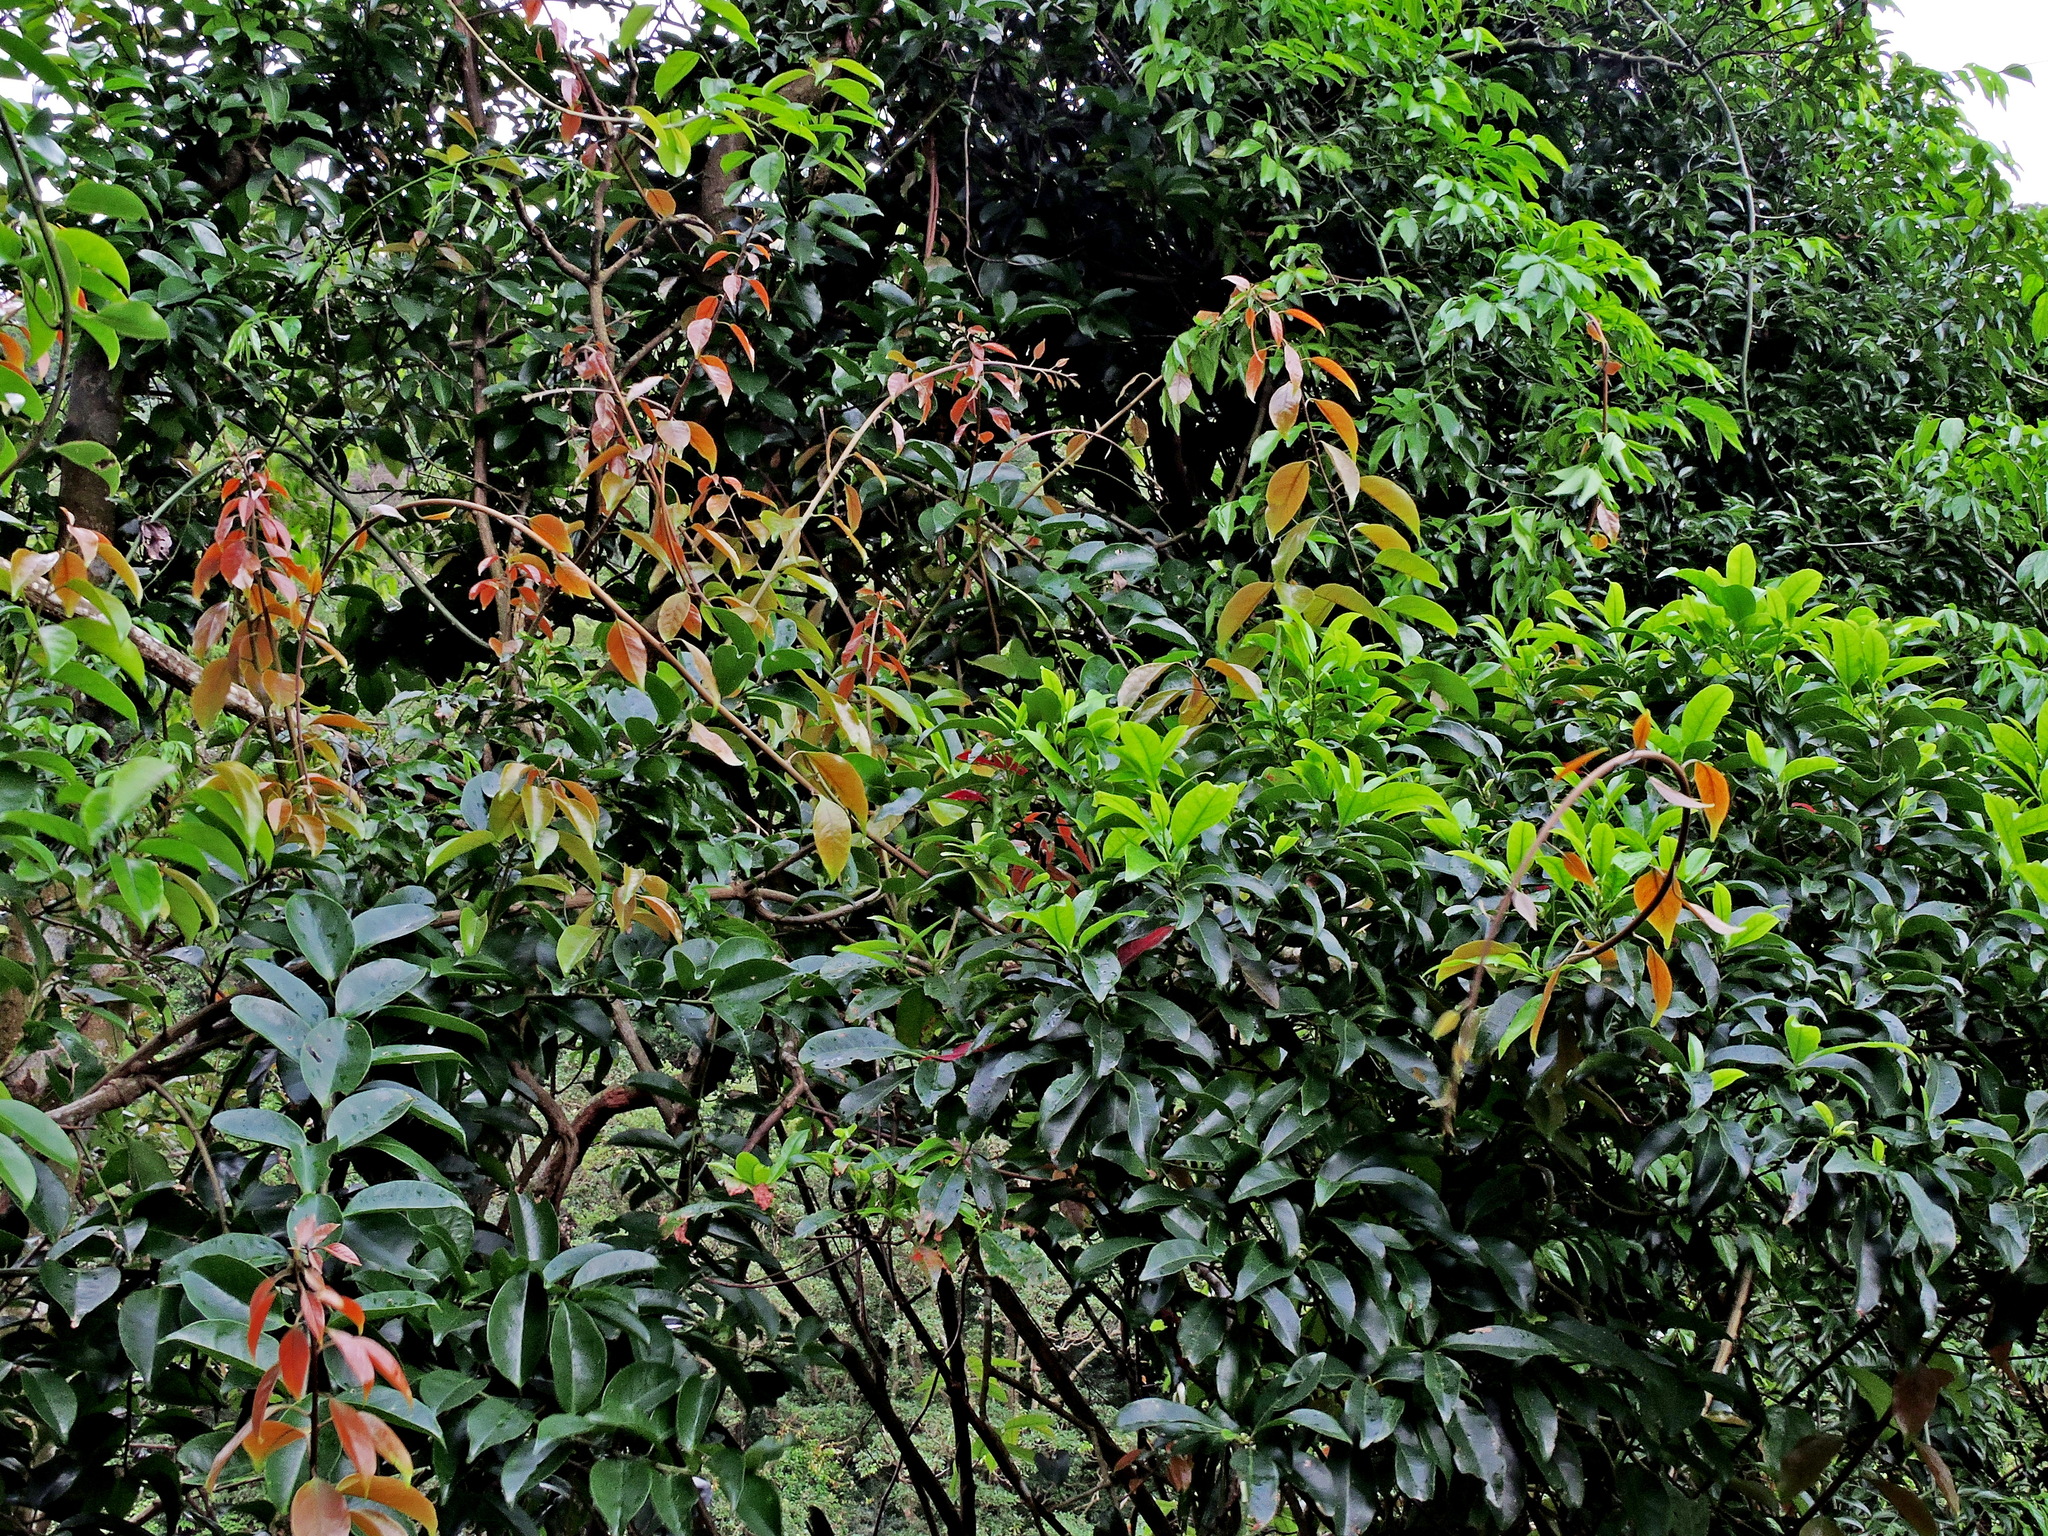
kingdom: Plantae
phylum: Tracheophyta
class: Magnoliopsida
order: Solanales
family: Convolvulaceae
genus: Erycibe
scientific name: Erycibe henryi
